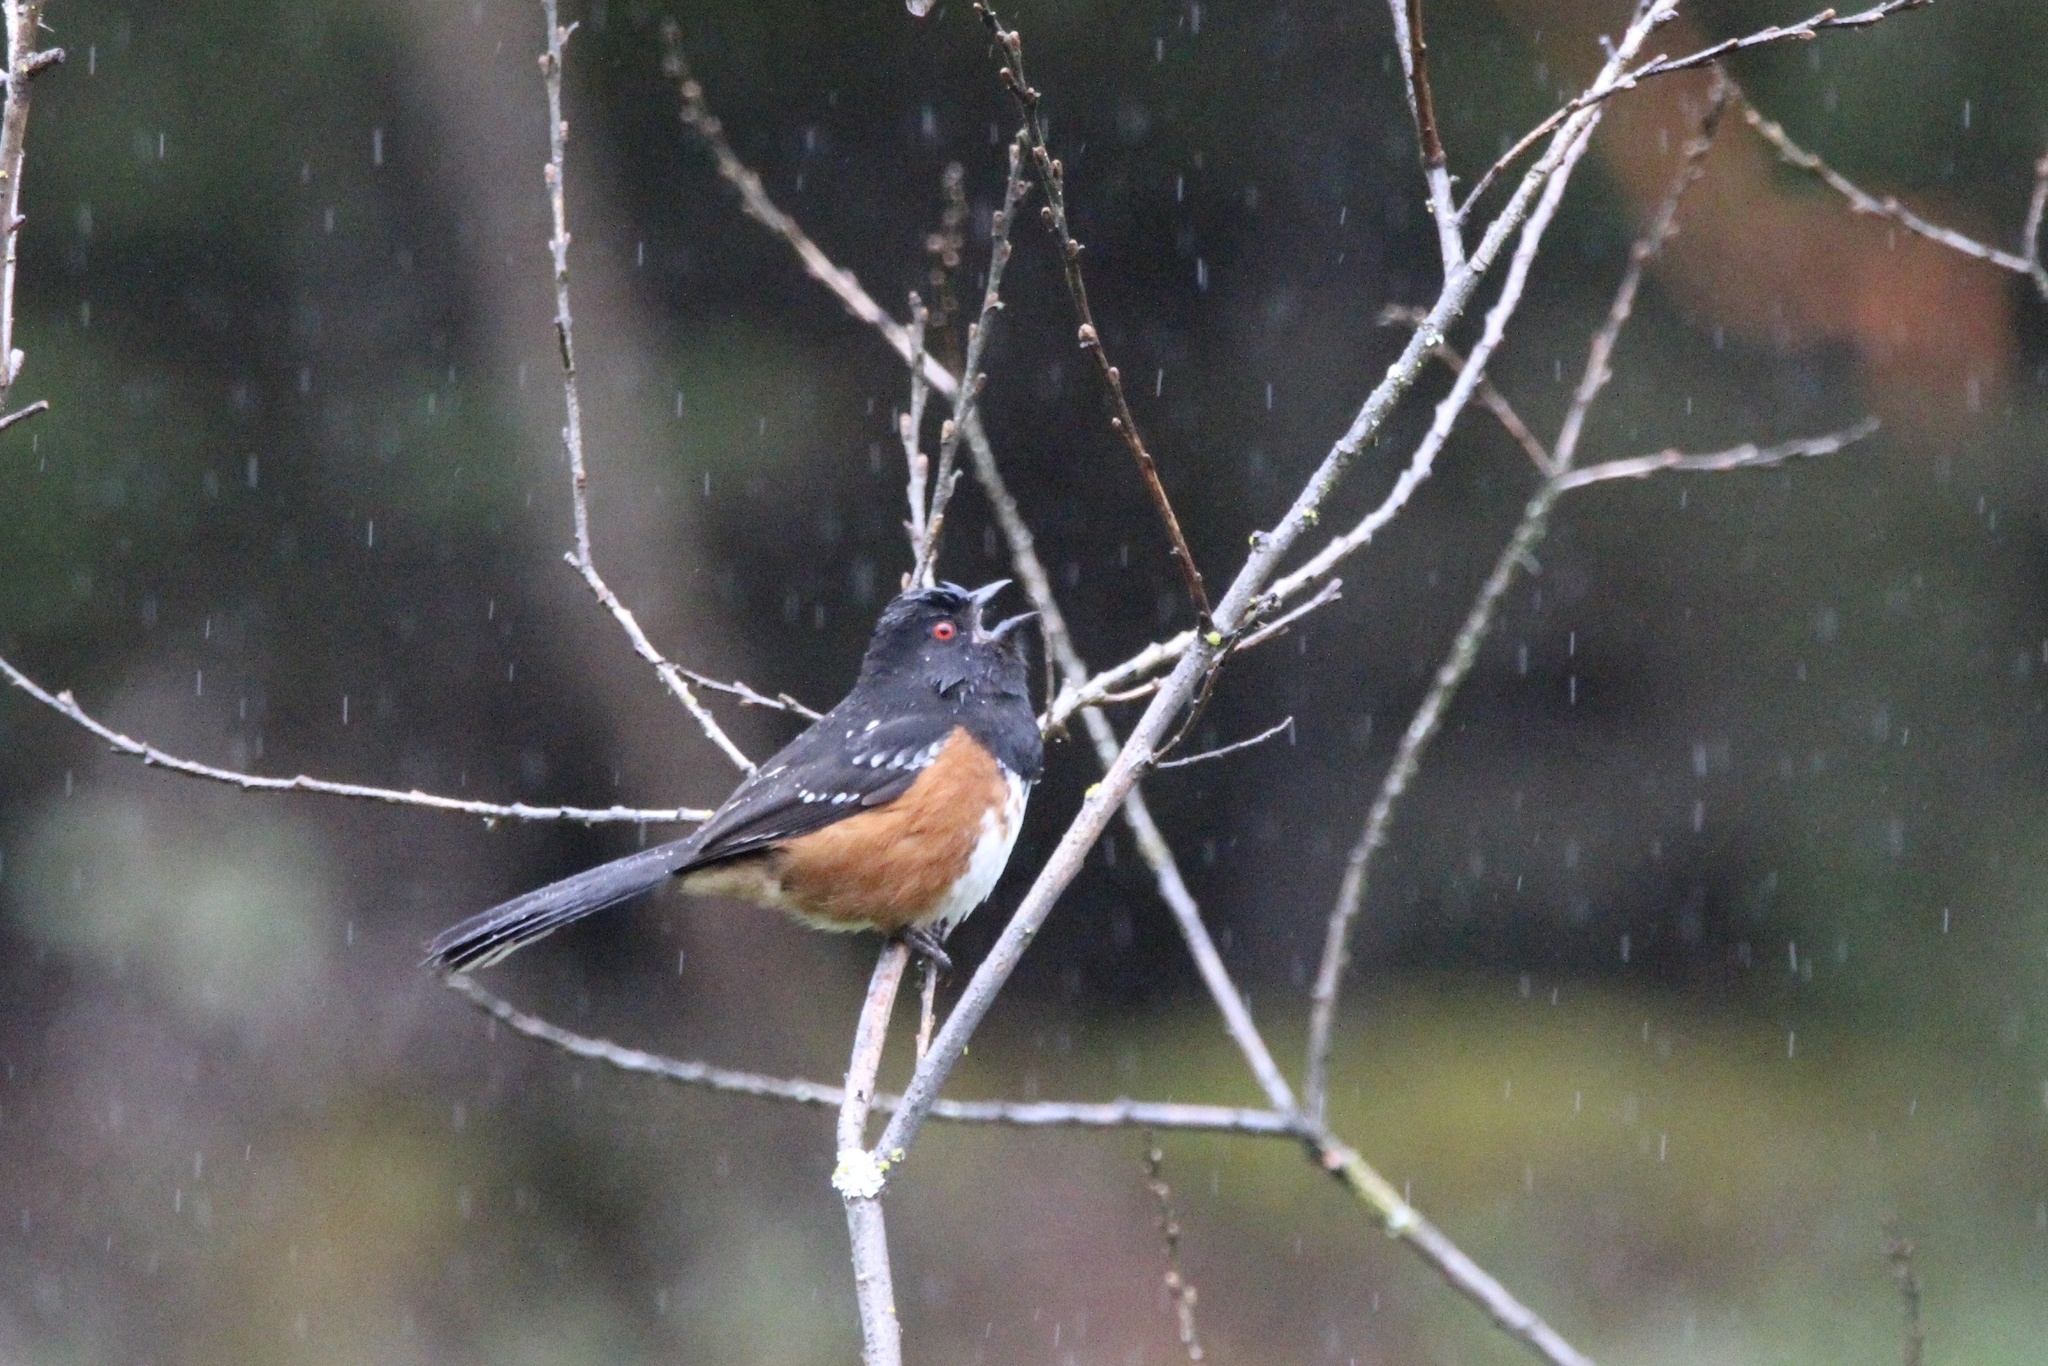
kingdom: Animalia
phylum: Chordata
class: Aves
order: Passeriformes
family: Passerellidae
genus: Pipilo
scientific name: Pipilo maculatus
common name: Spotted towhee
